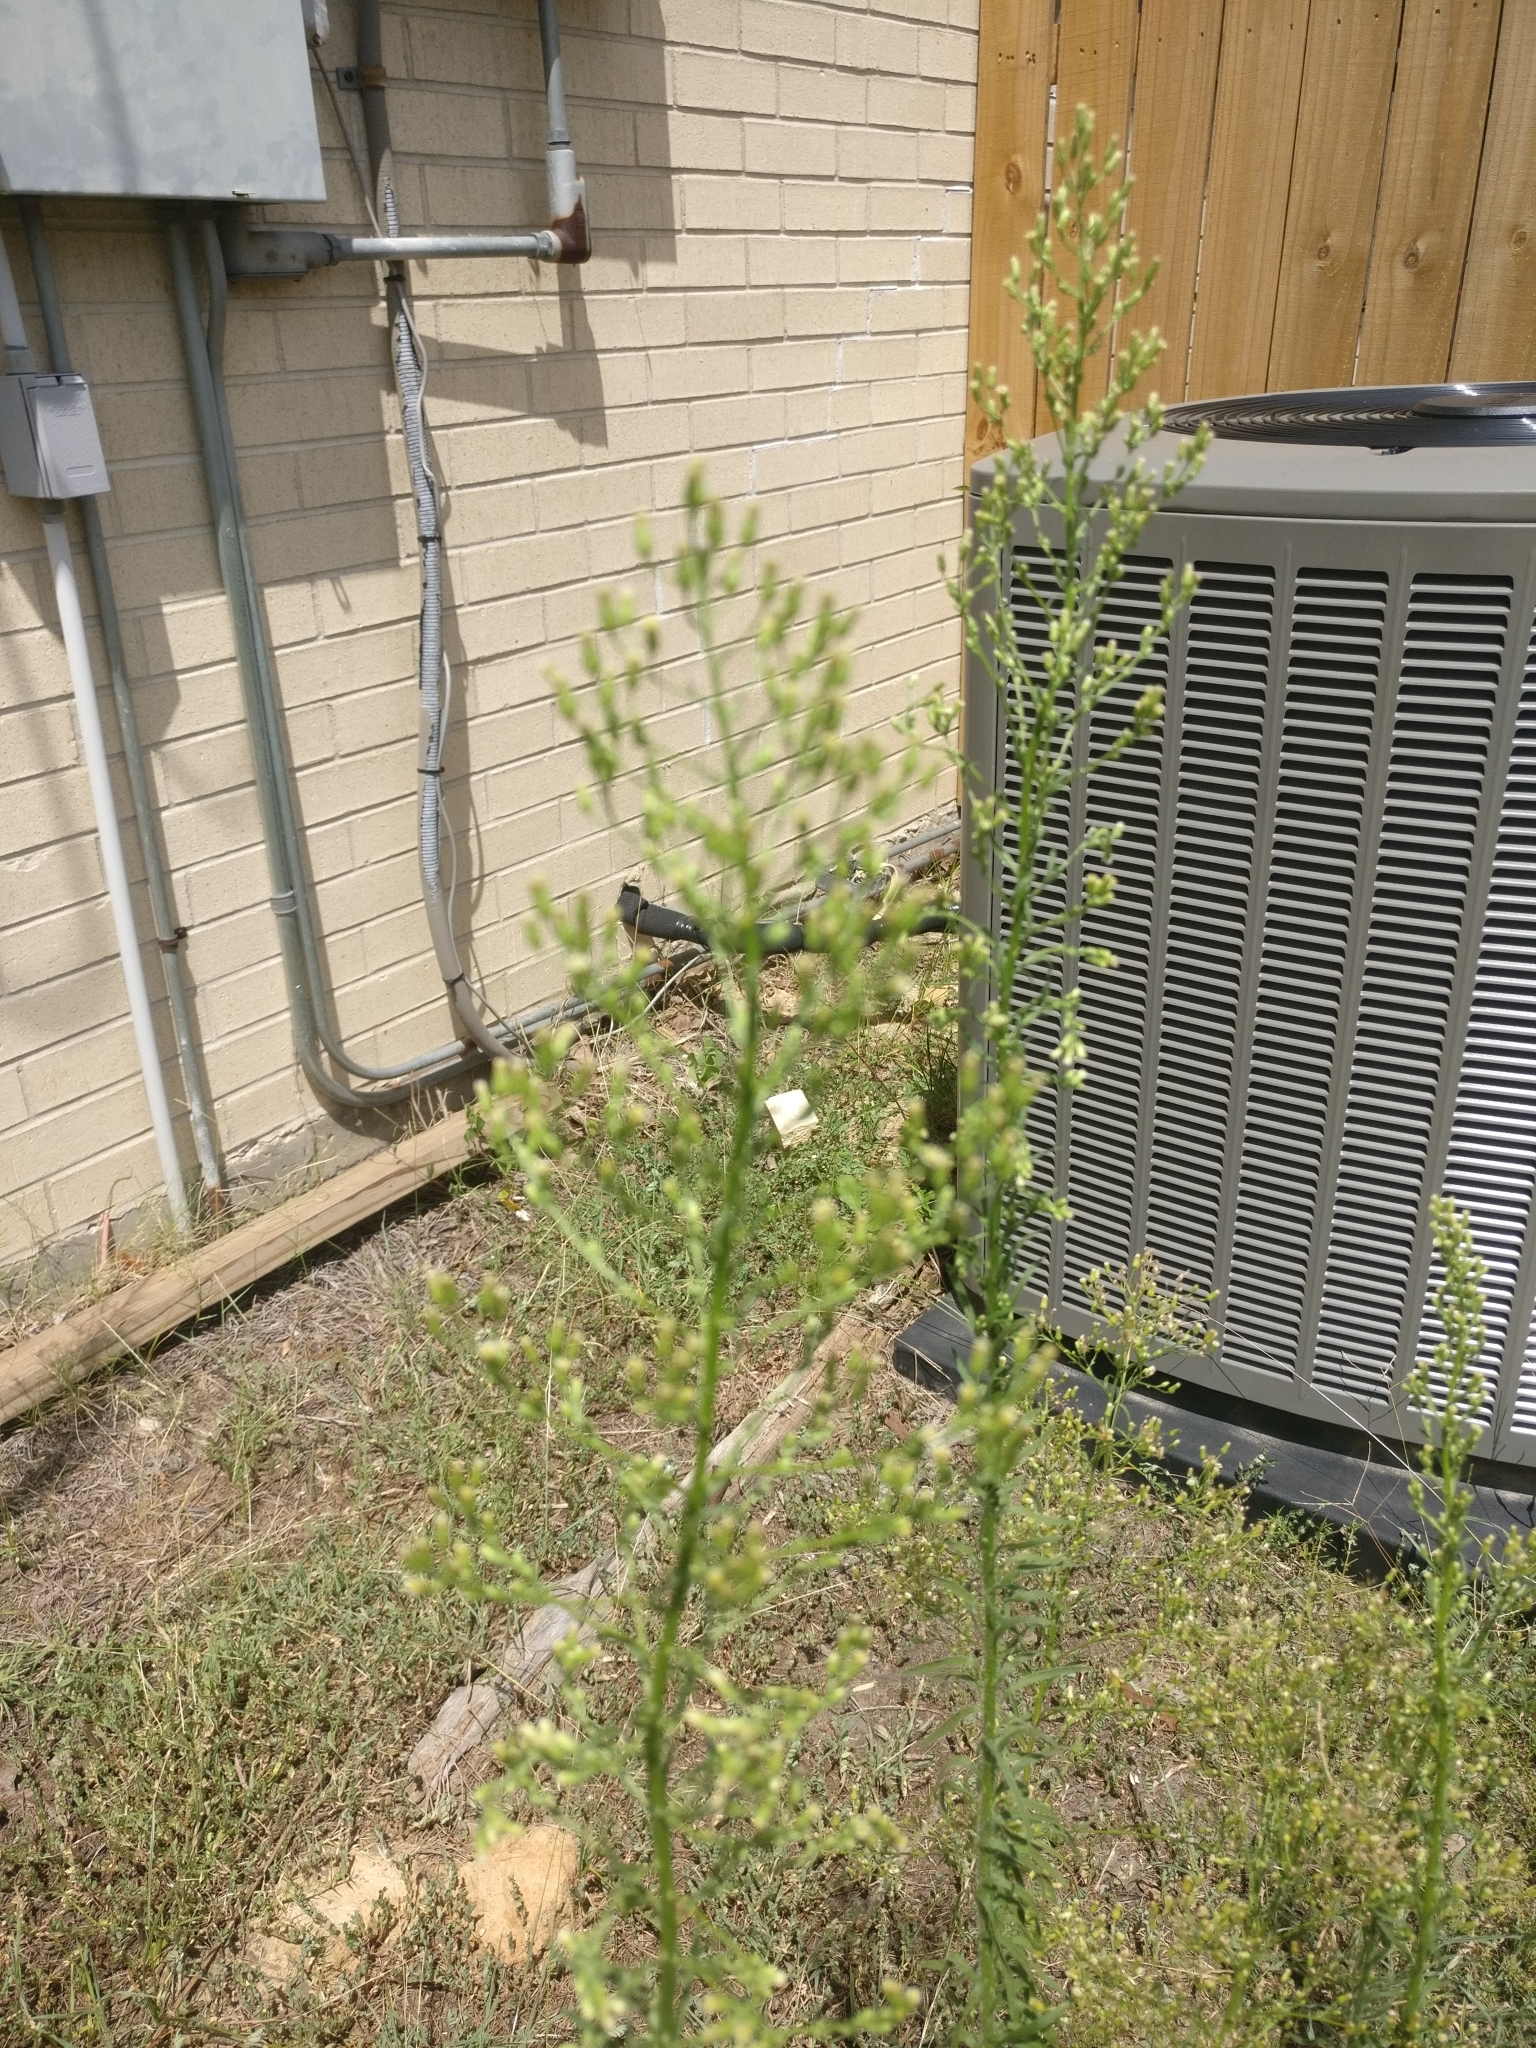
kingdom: Plantae
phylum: Tracheophyta
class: Magnoliopsida
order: Asterales
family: Asteraceae
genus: Erigeron
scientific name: Erigeron canadensis
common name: Canadian fleabane
